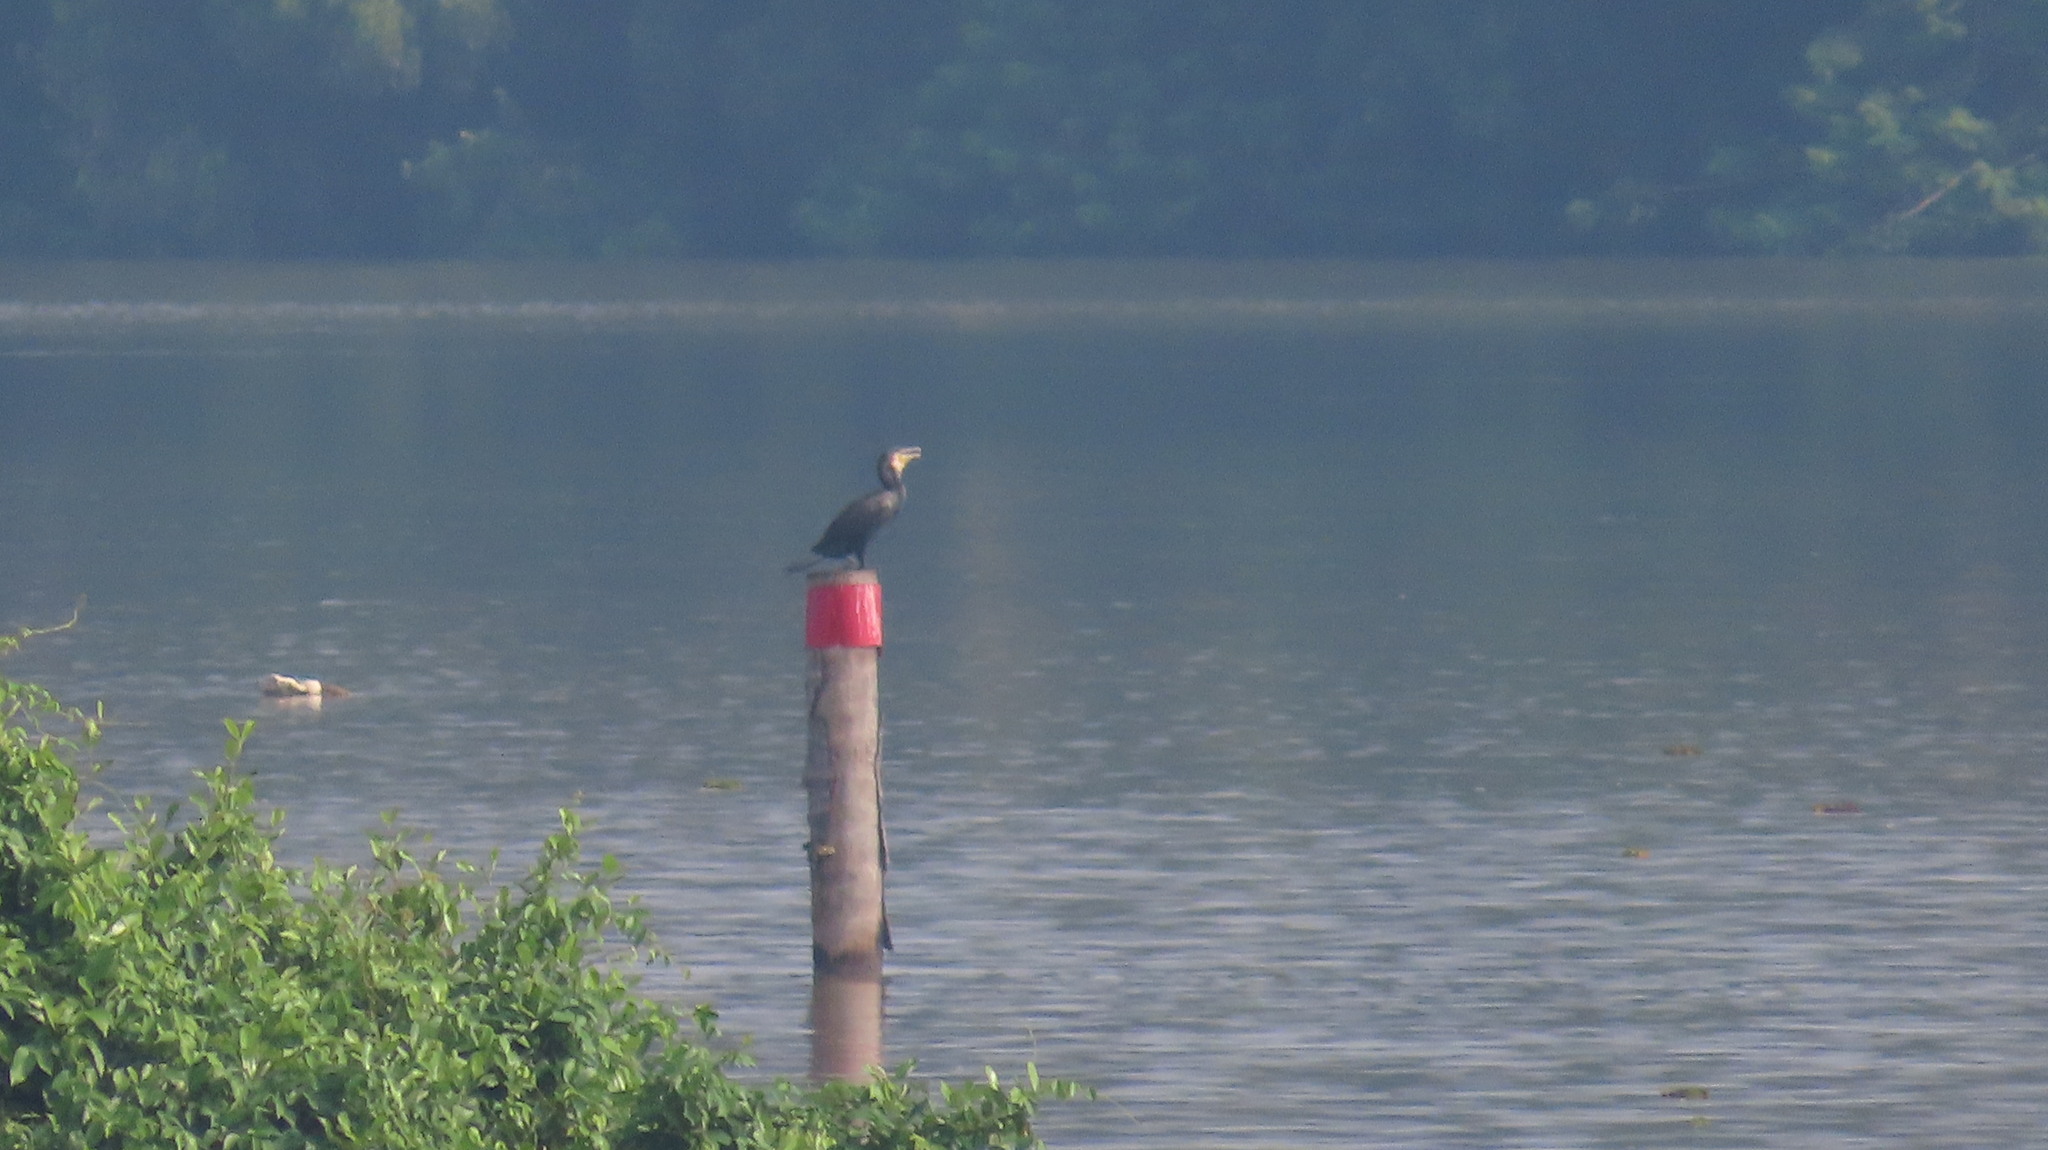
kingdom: Animalia
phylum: Chordata
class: Aves
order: Suliformes
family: Phalacrocoracidae
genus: Phalacrocorax
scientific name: Phalacrocorax carbo
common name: Great cormorant
